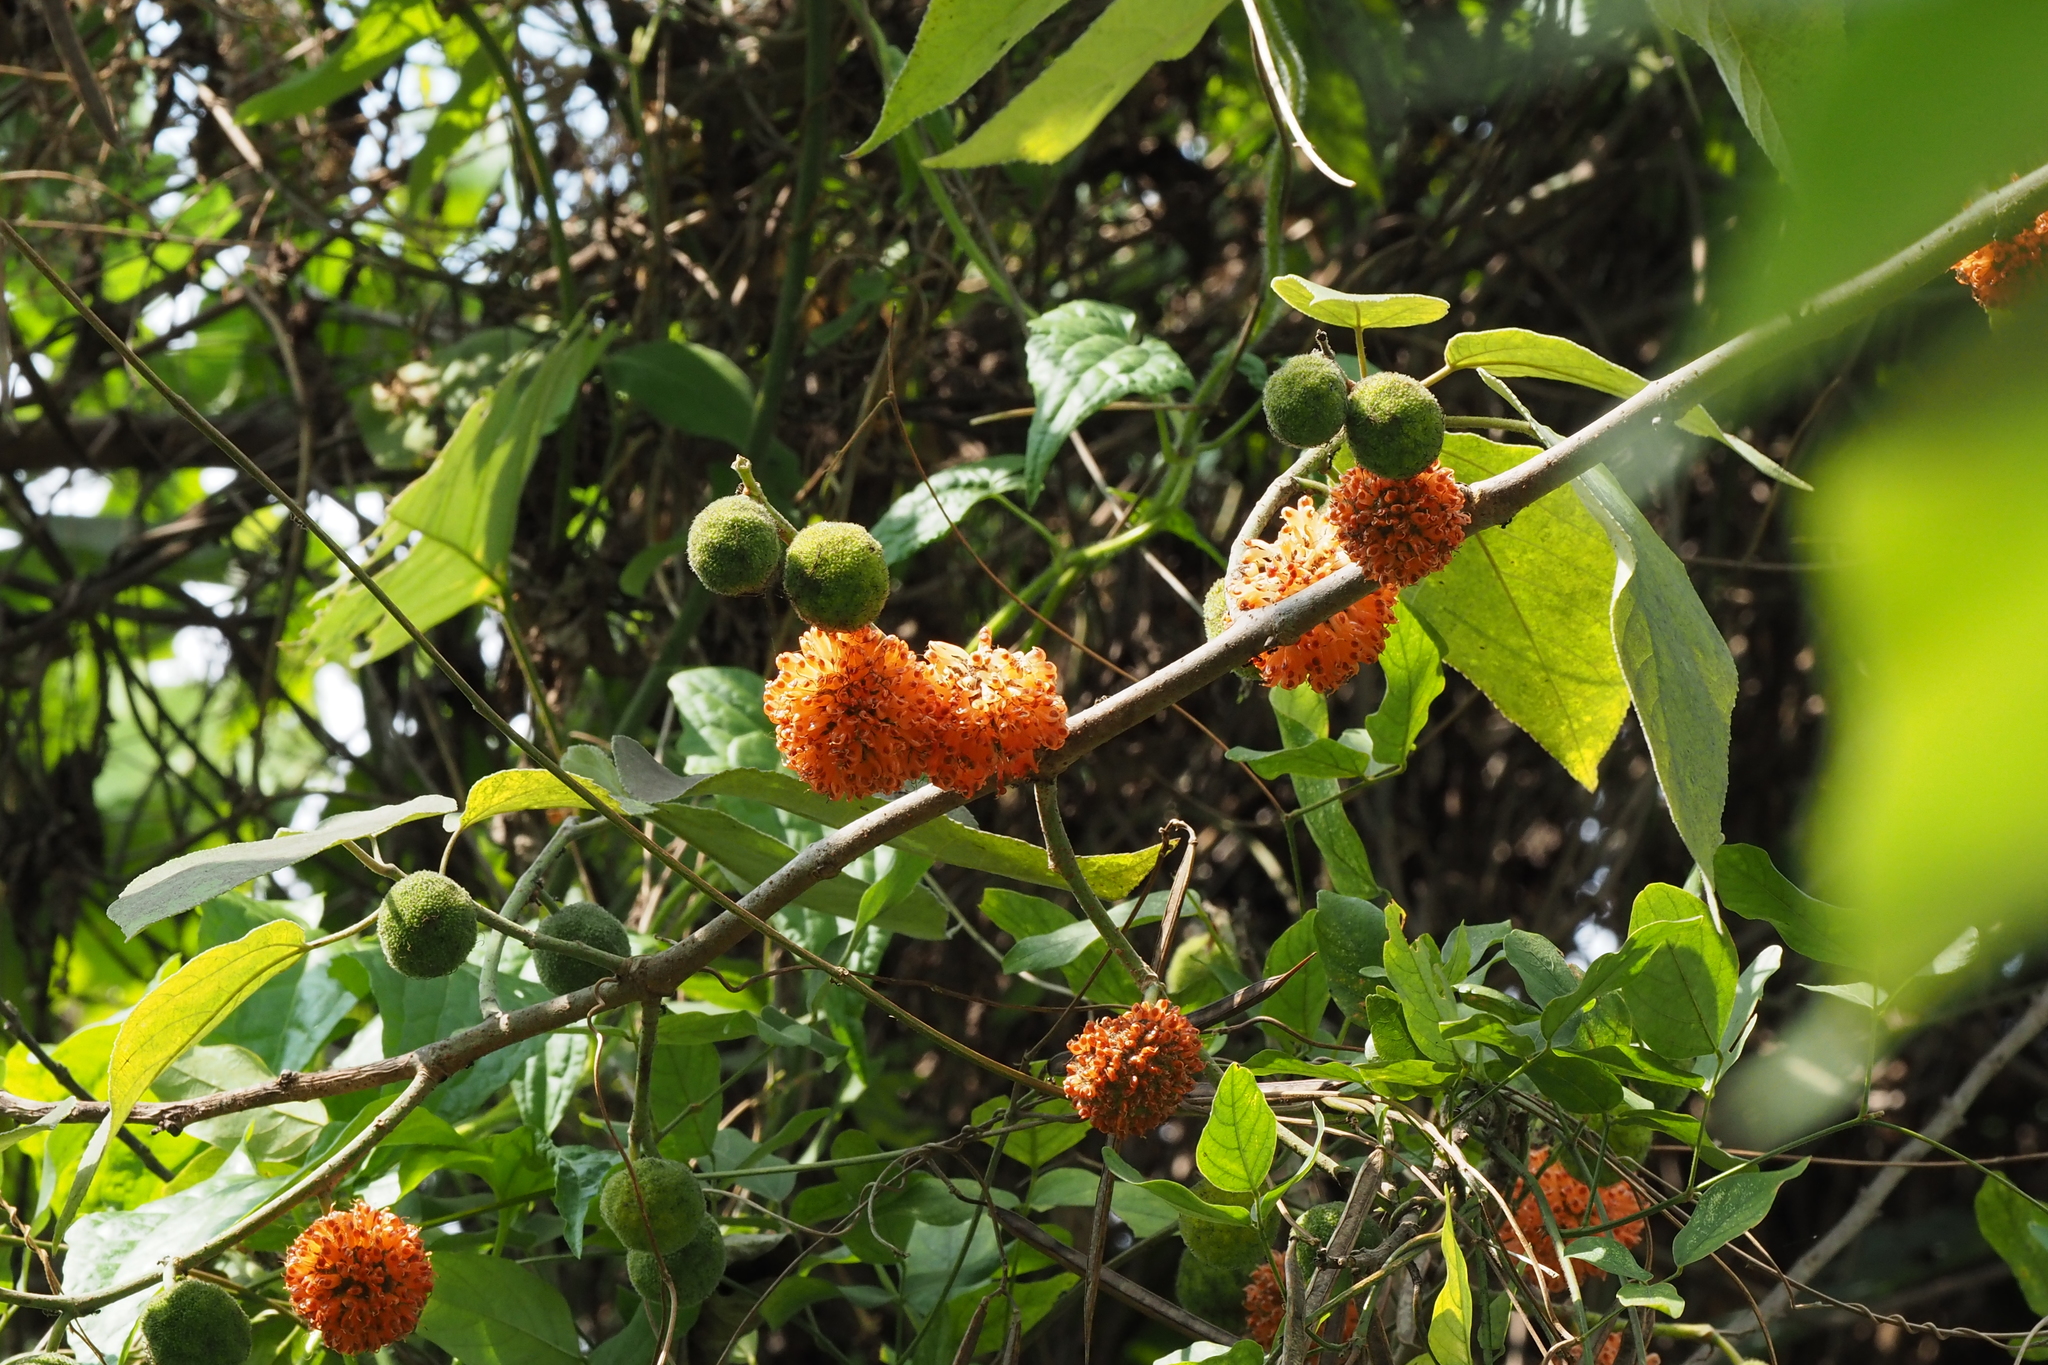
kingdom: Plantae
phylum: Tracheophyta
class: Magnoliopsida
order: Rosales
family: Moraceae
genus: Broussonetia
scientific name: Broussonetia papyrifera
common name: Paper mulberry
